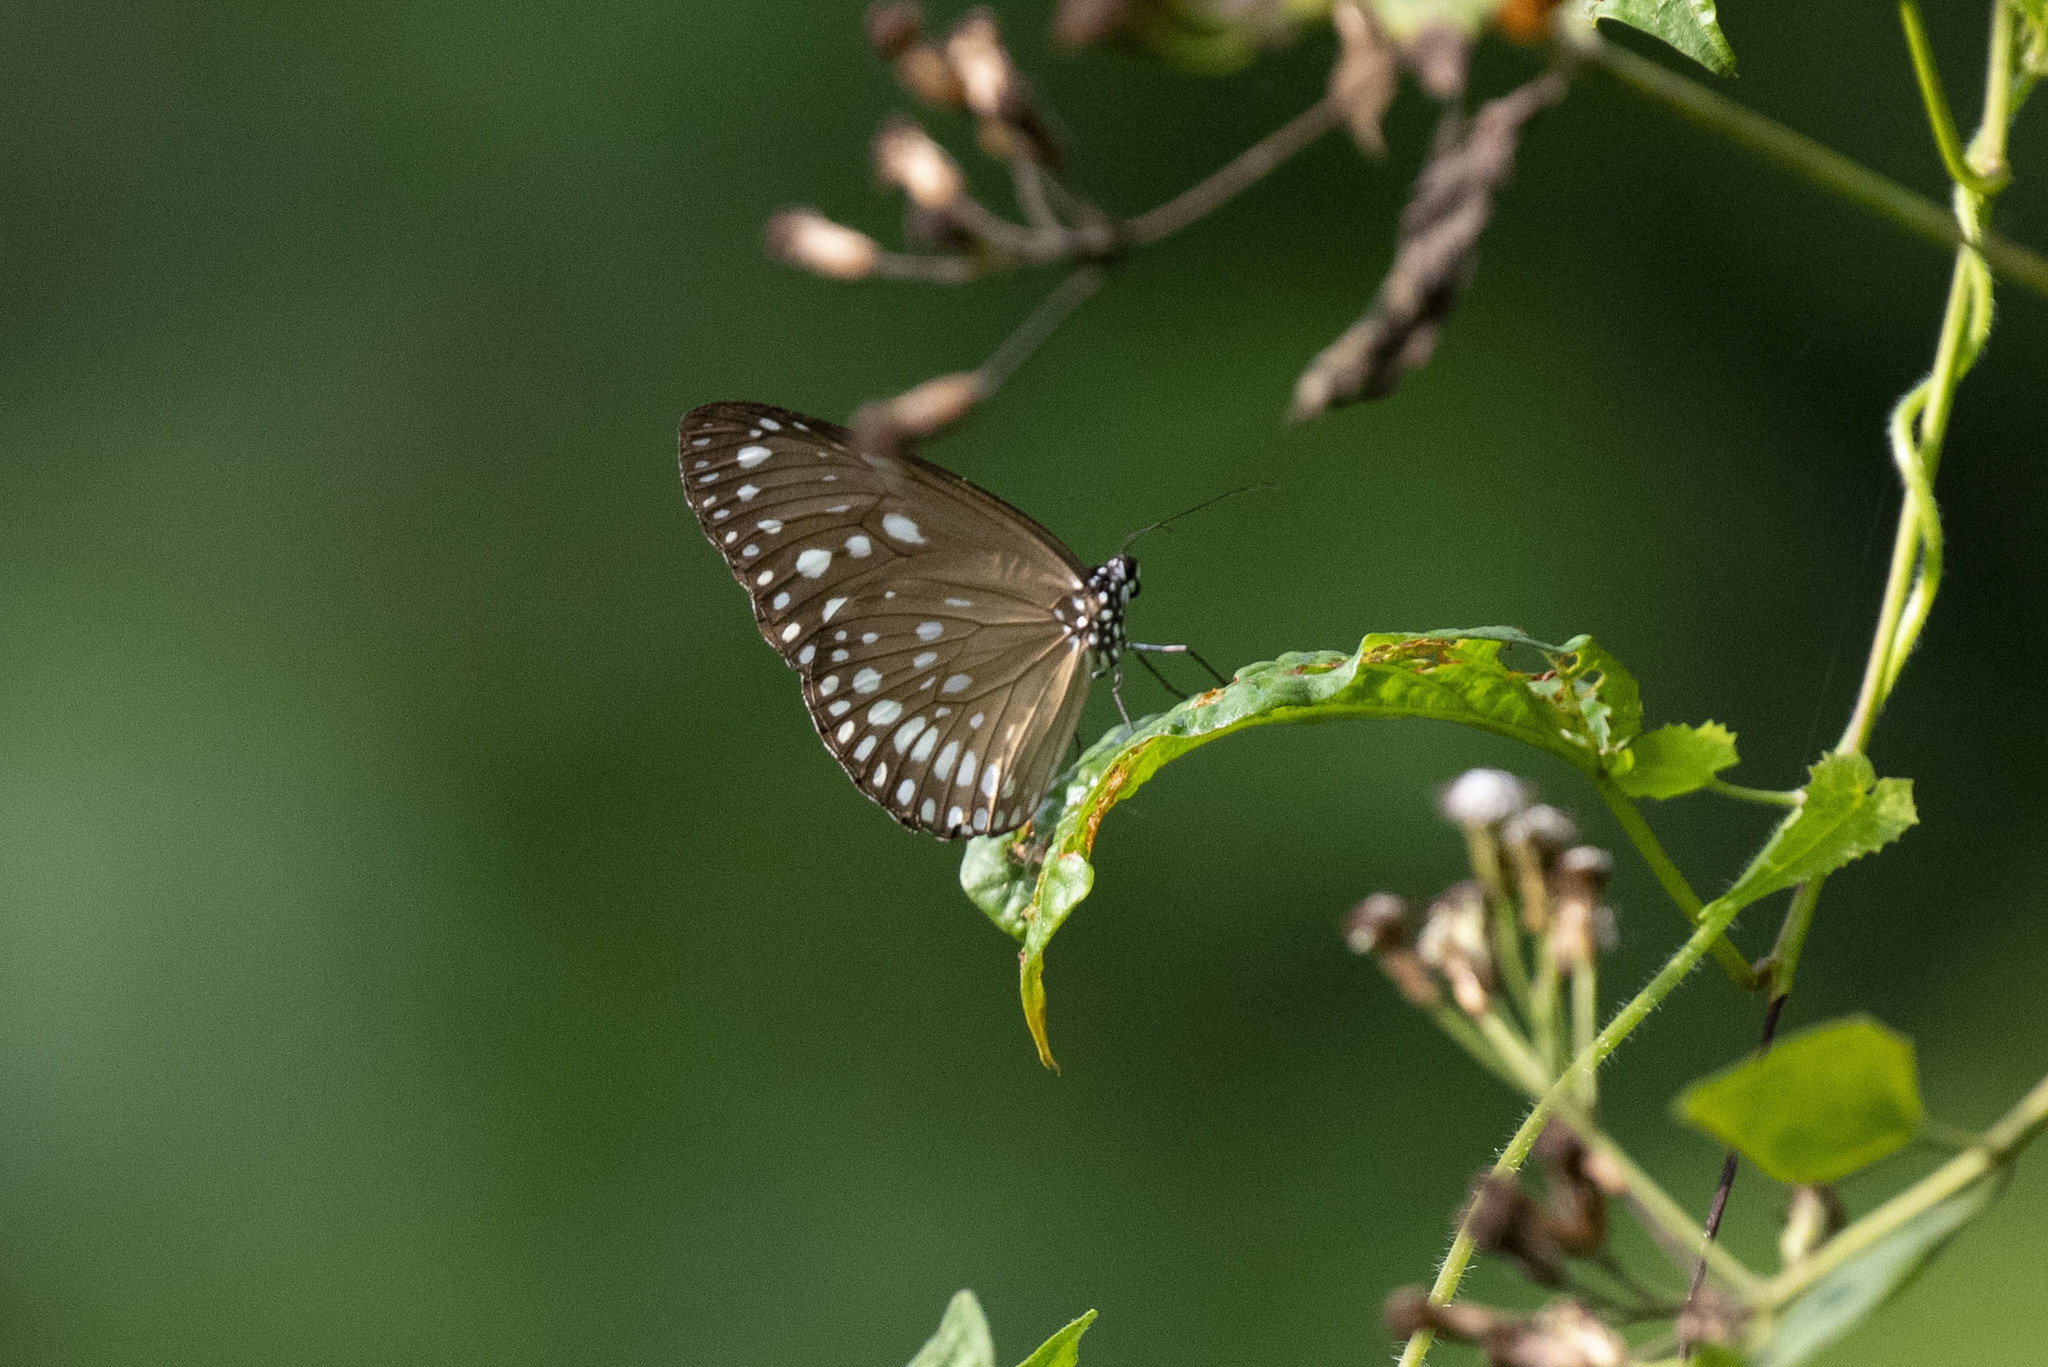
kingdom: Animalia
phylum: Arthropoda
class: Insecta
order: Lepidoptera
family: Nymphalidae
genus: Euploea
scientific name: Euploea core
